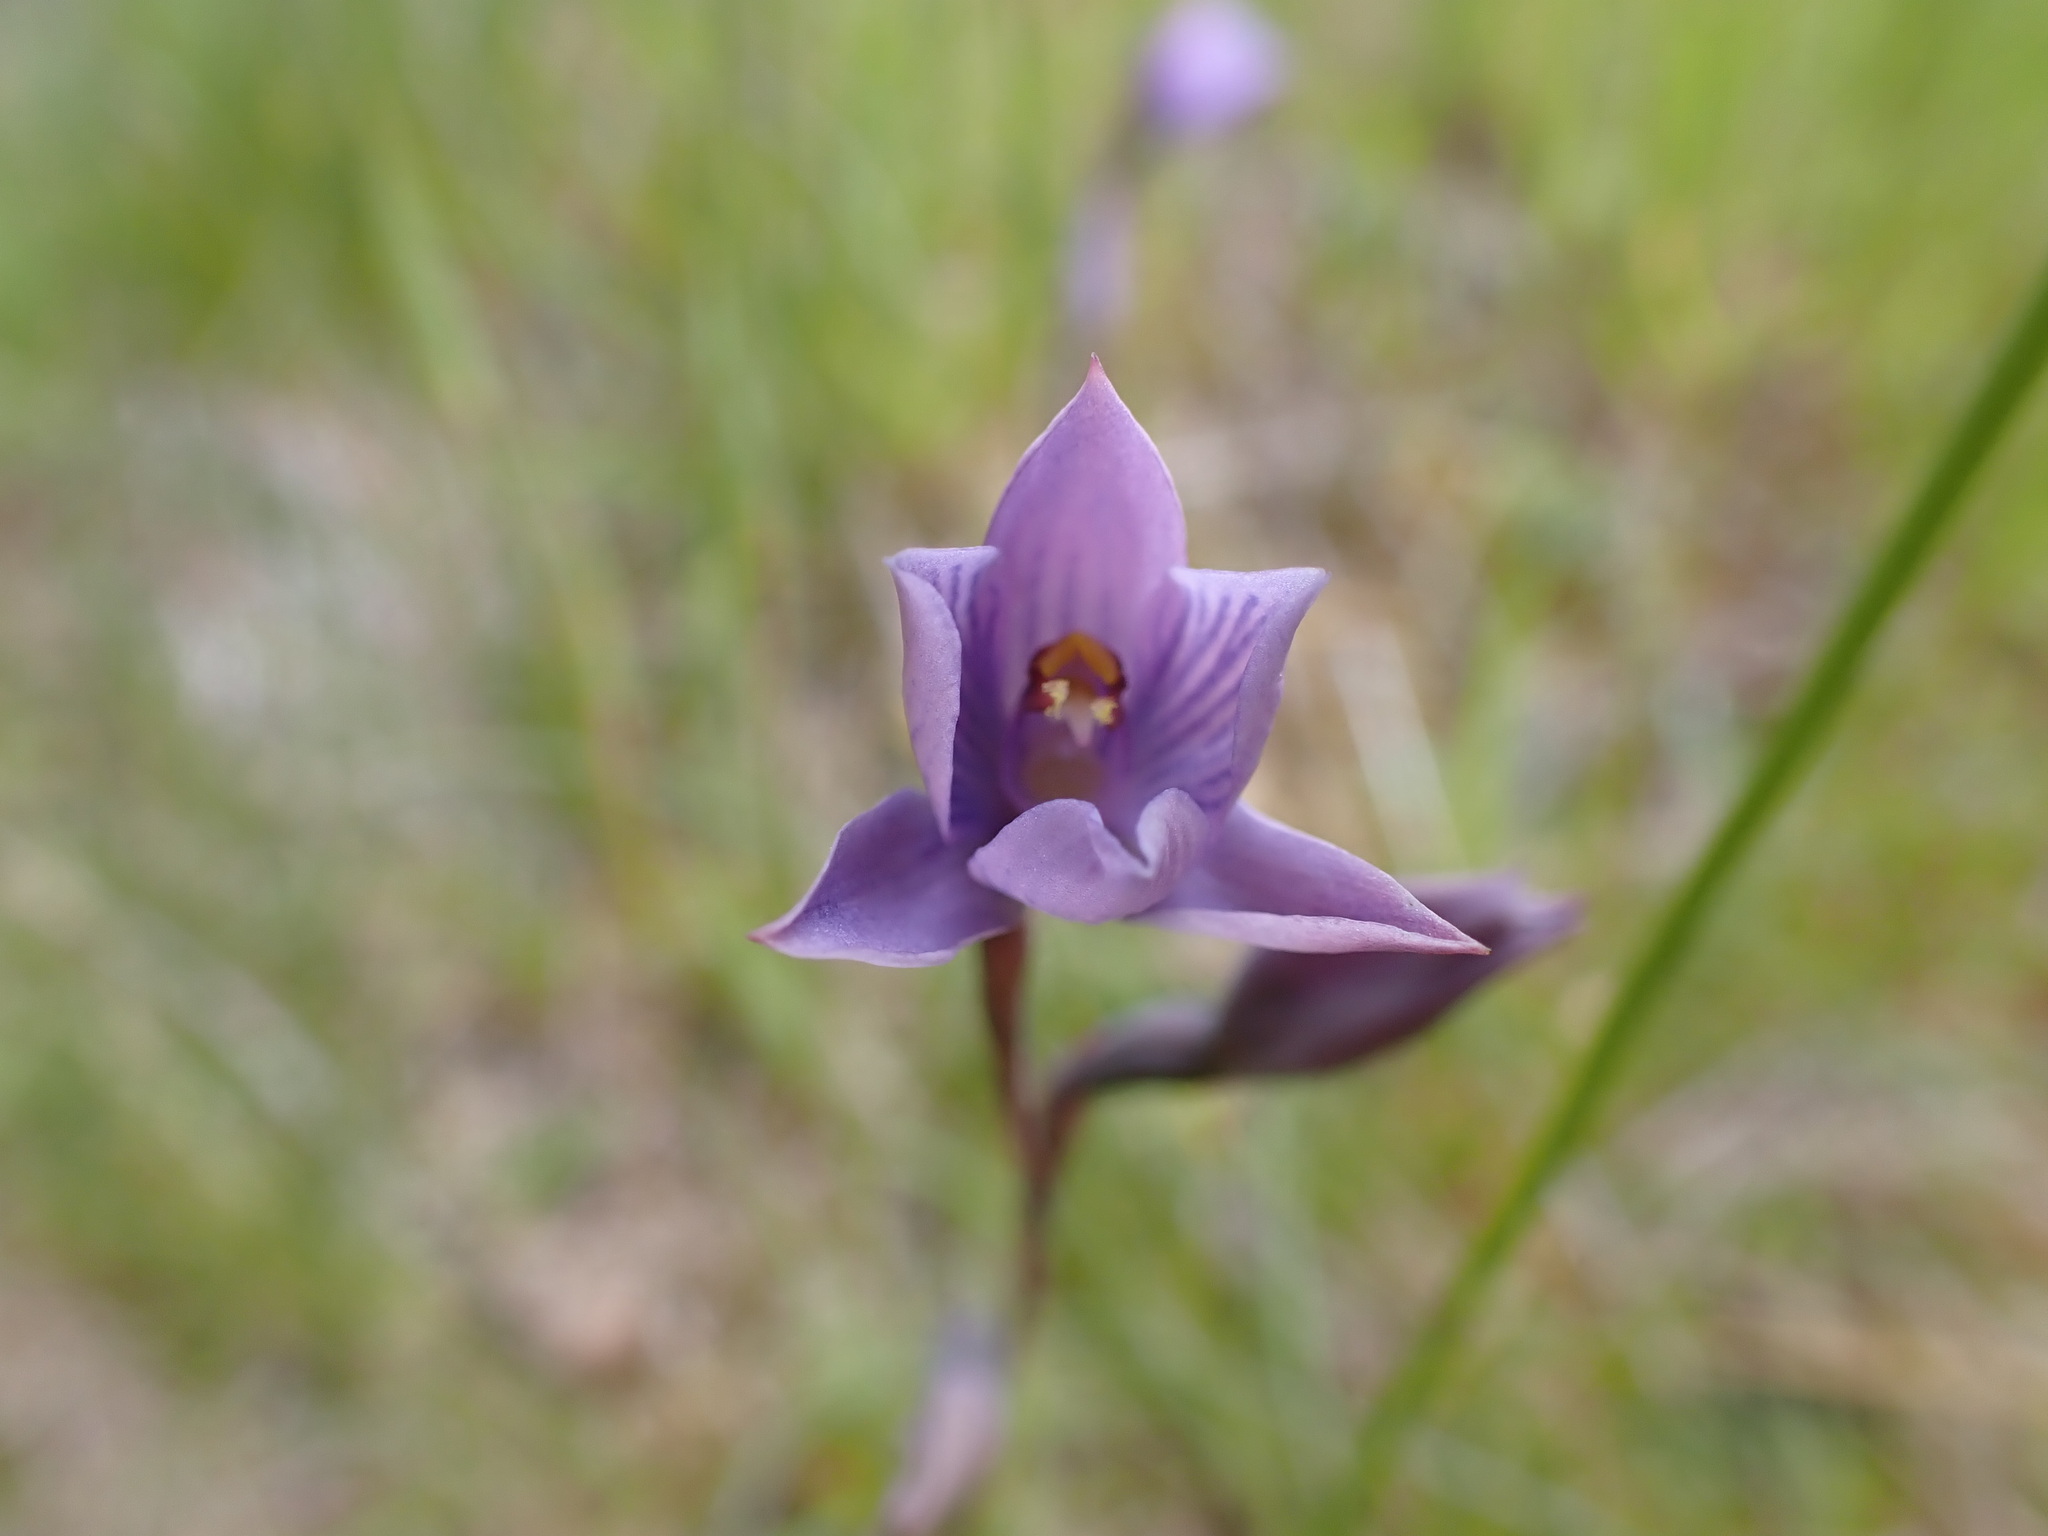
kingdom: Plantae
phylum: Tracheophyta
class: Liliopsida
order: Asparagales
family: Orchidaceae
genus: Thelymitra
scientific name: Thelymitra pulchella
